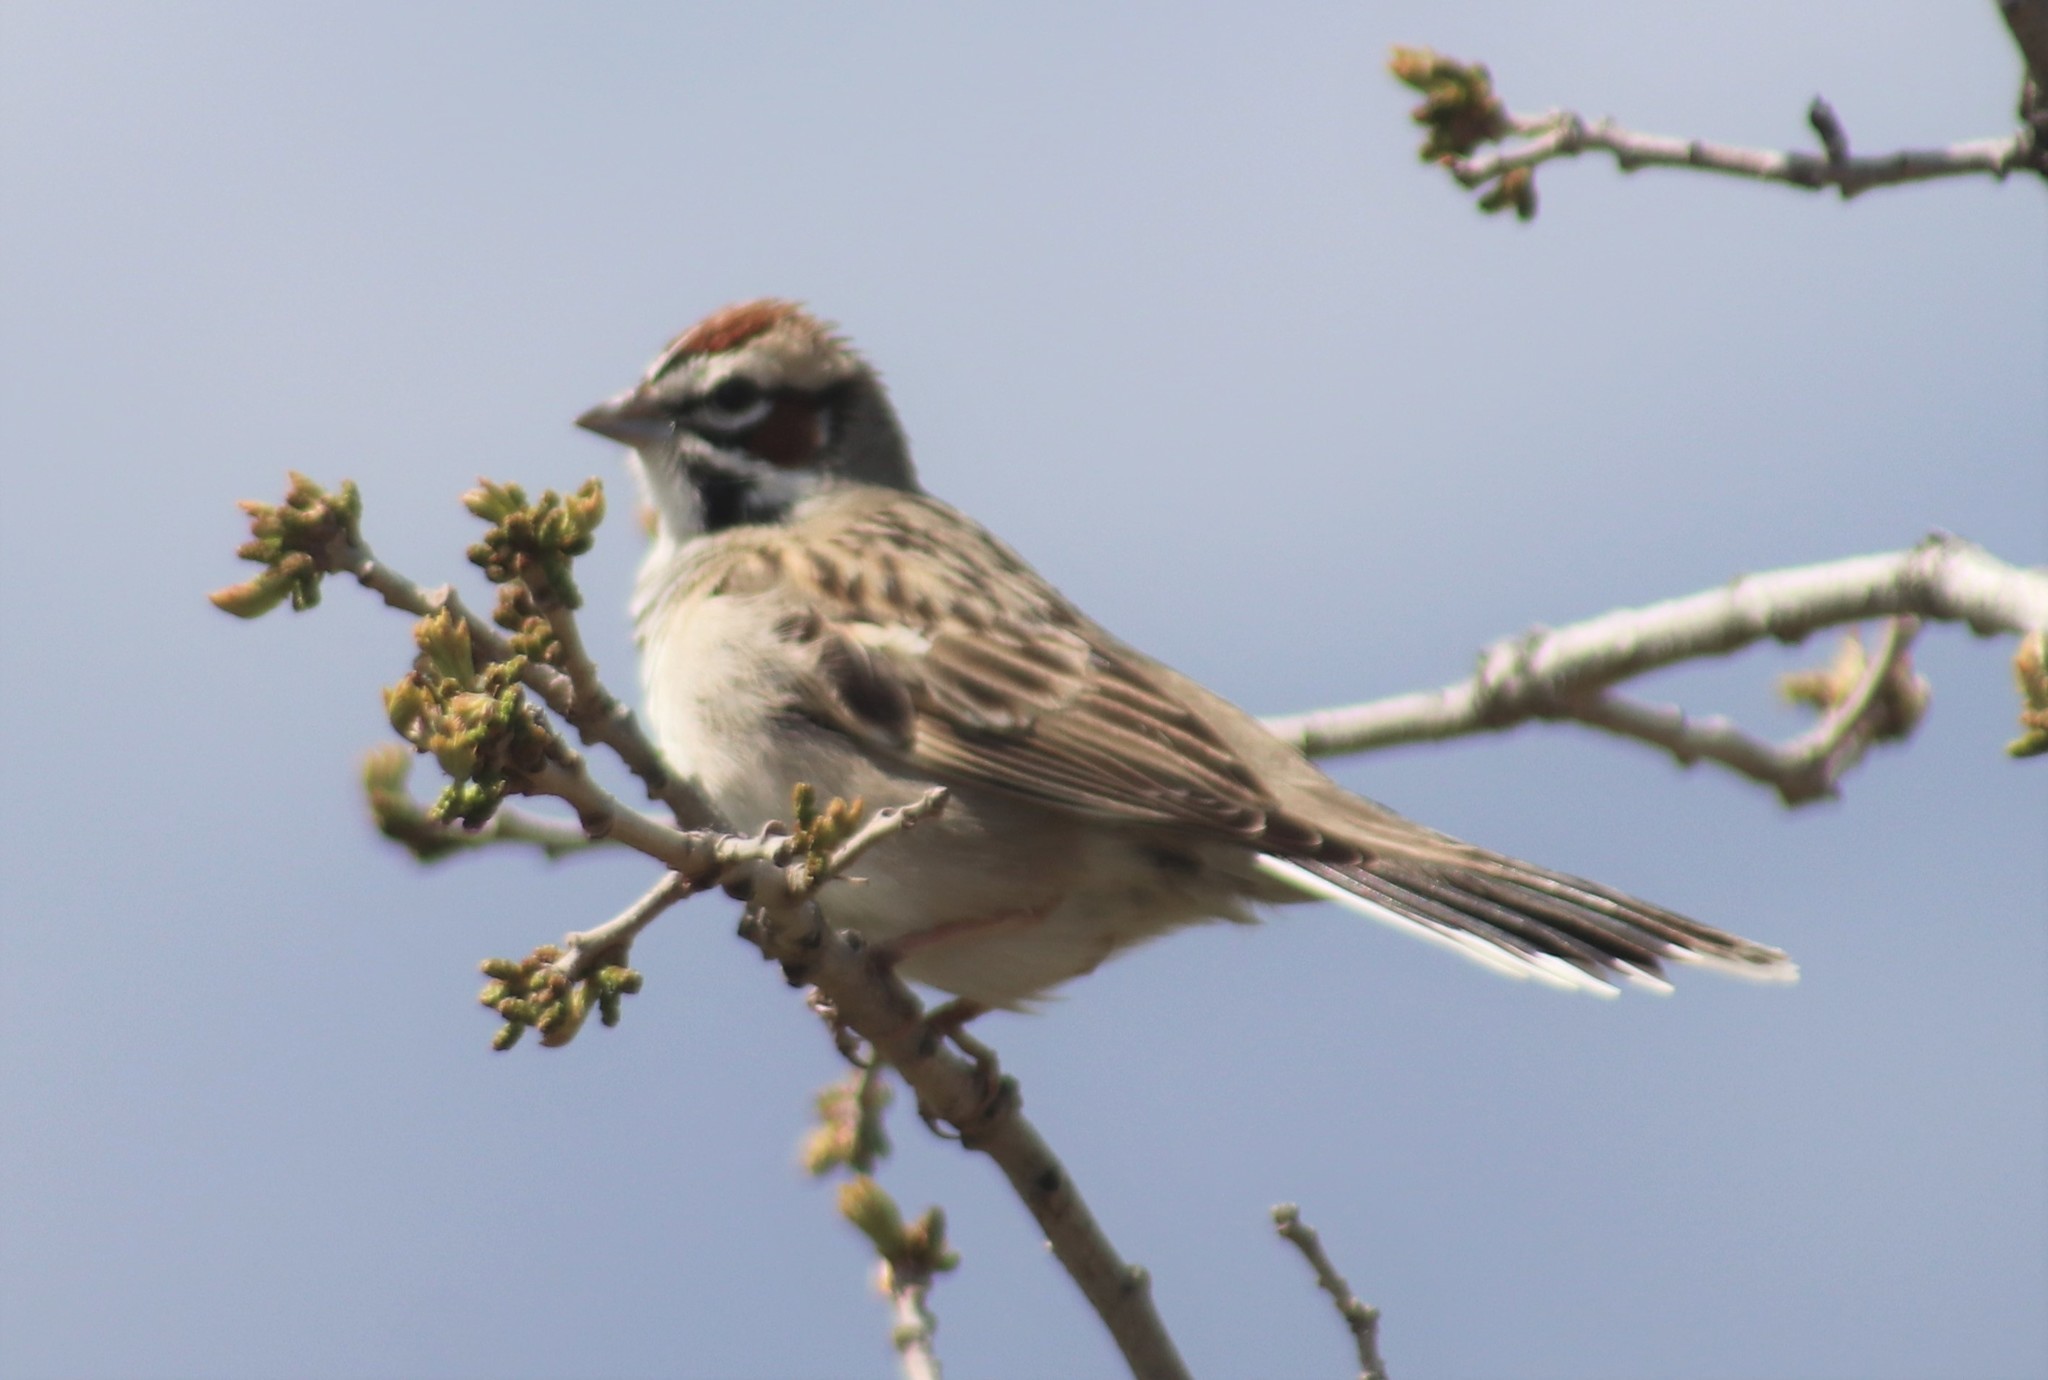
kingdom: Animalia
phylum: Chordata
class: Aves
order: Passeriformes
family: Passerellidae
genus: Chondestes
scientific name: Chondestes grammacus
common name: Lark sparrow
